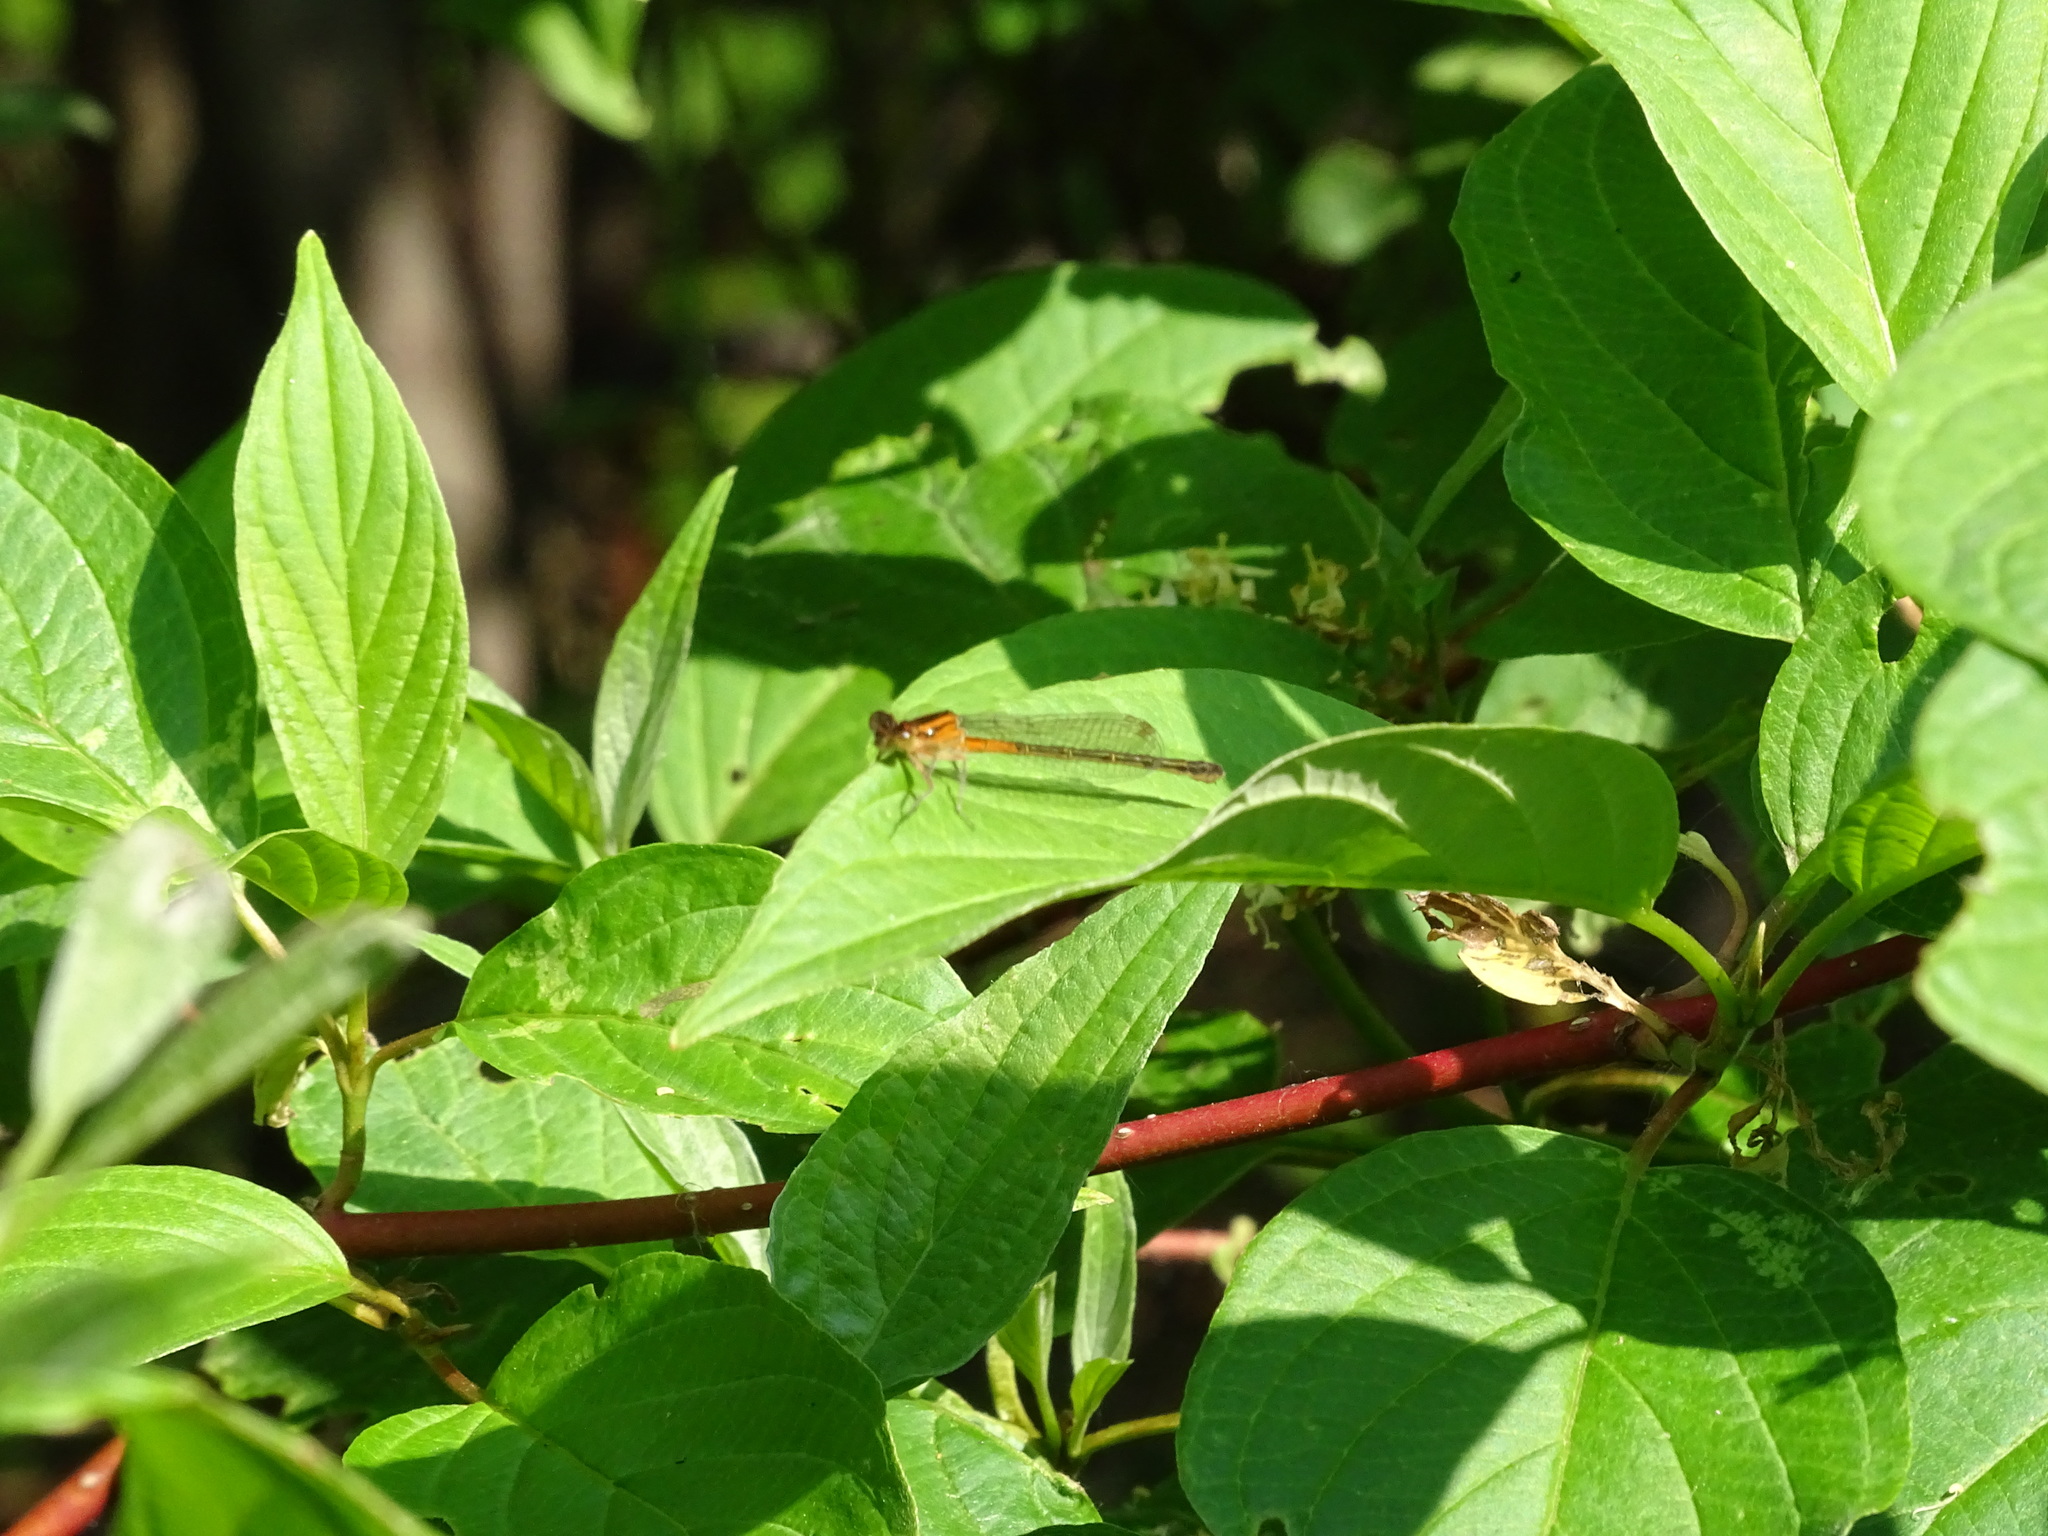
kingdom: Animalia
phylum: Arthropoda
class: Insecta
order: Odonata
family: Coenagrionidae
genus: Ischnura
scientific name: Ischnura verticalis
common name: Eastern forktail
